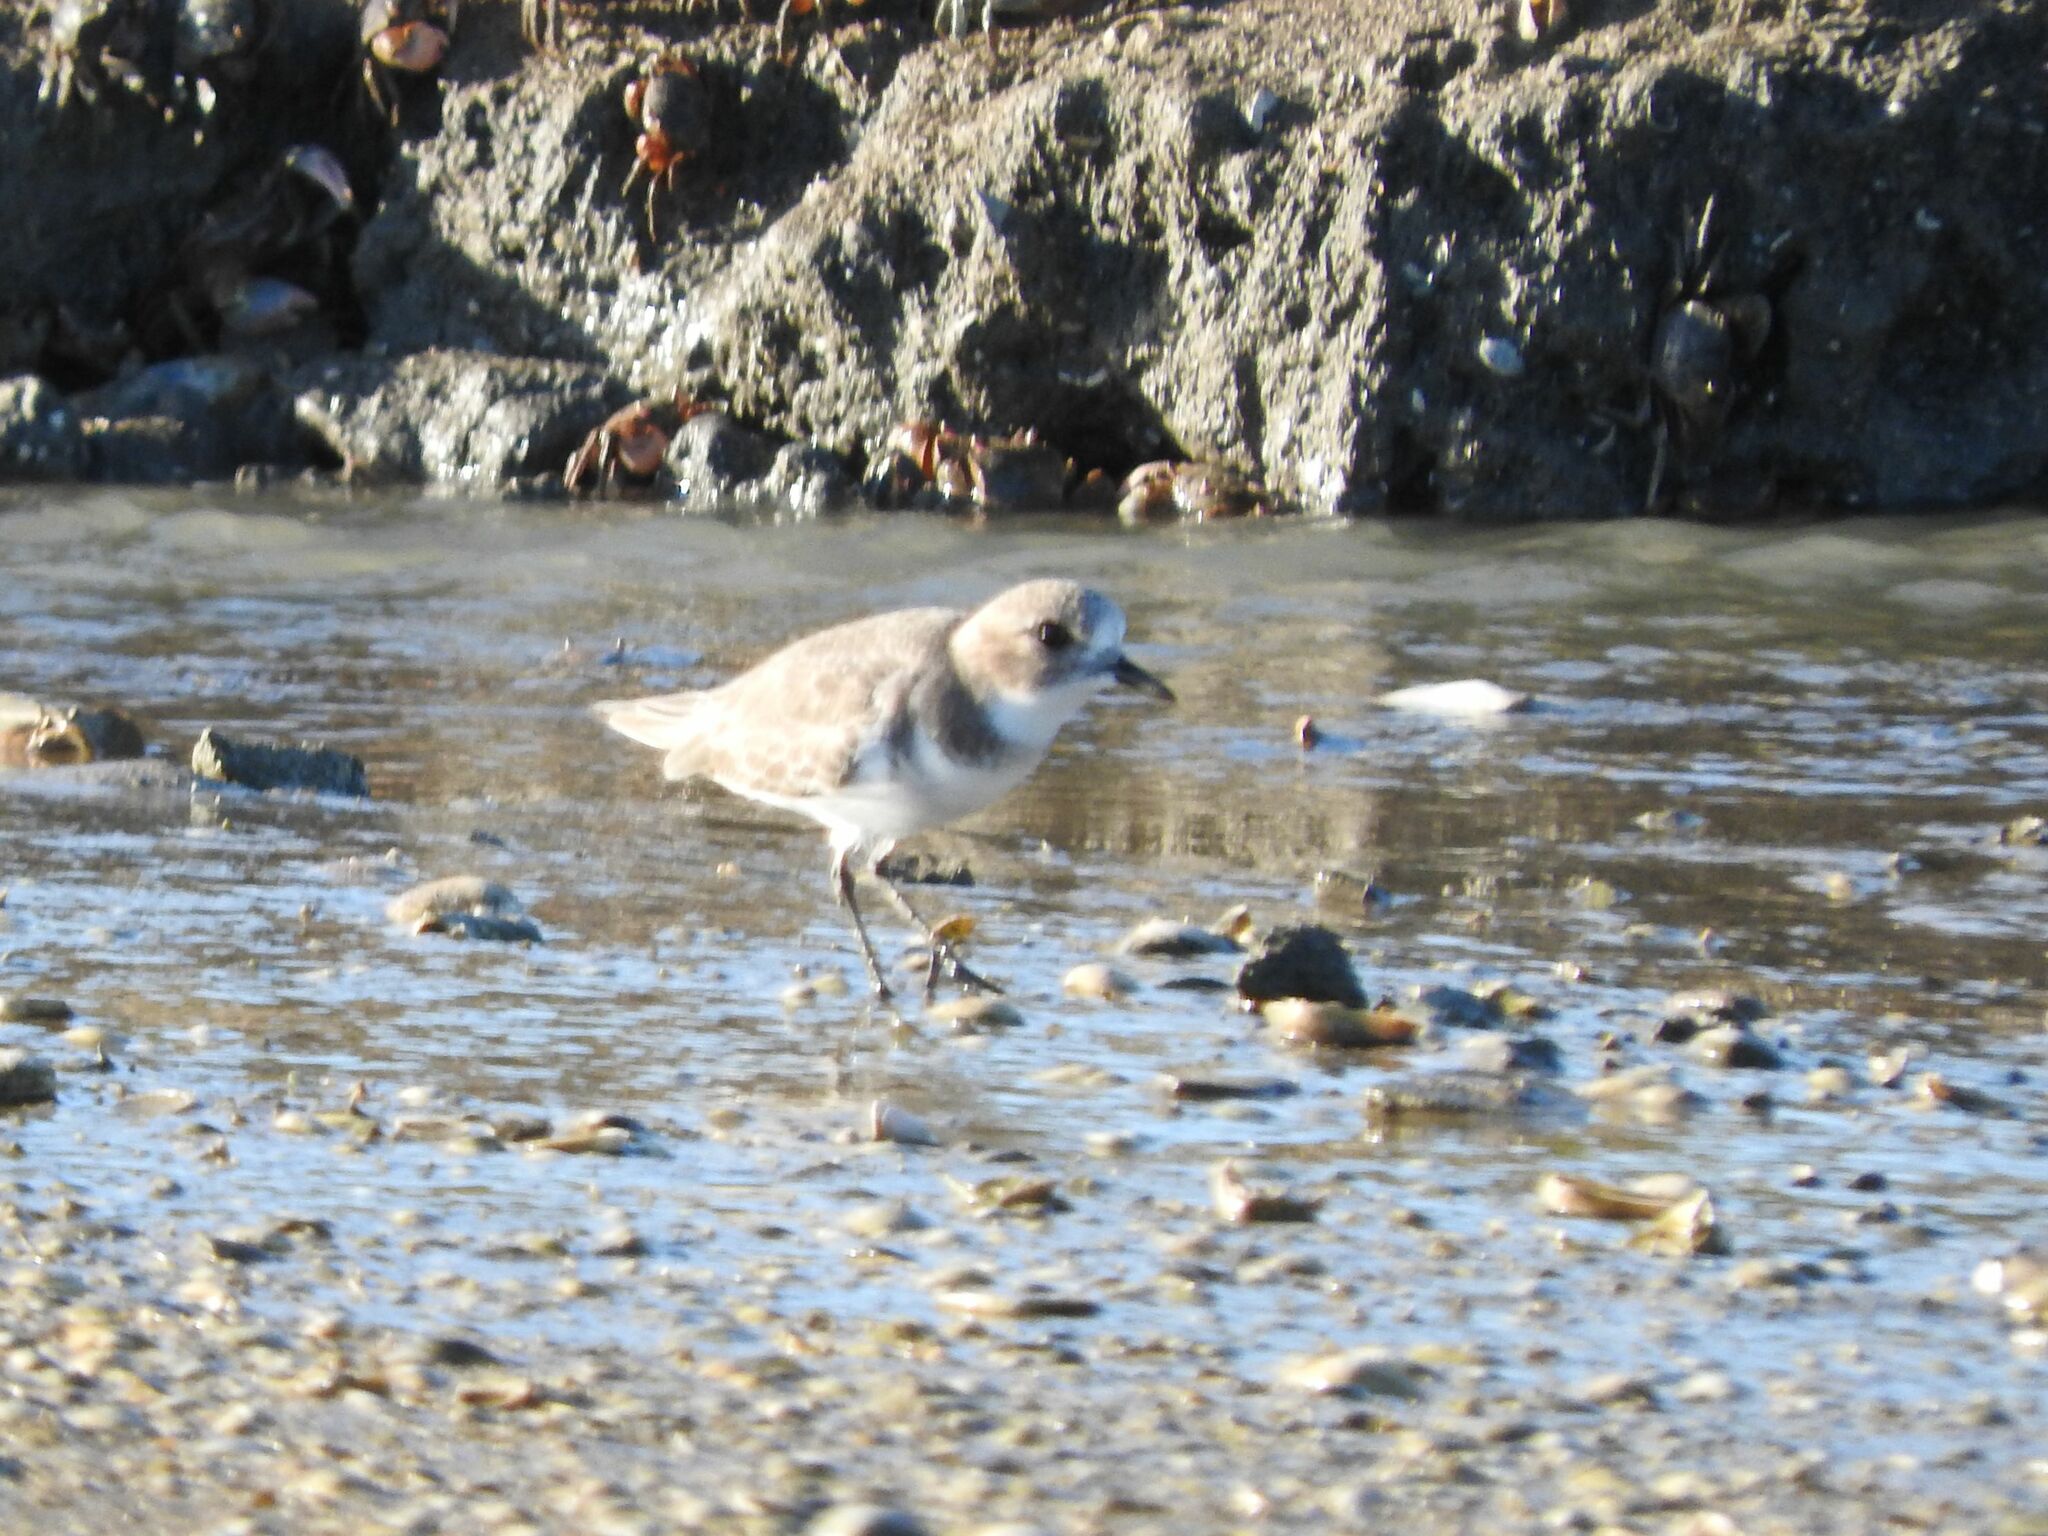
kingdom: Animalia
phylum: Chordata
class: Aves
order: Charadriiformes
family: Charadriidae
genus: Anarhynchus
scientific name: Anarhynchus
